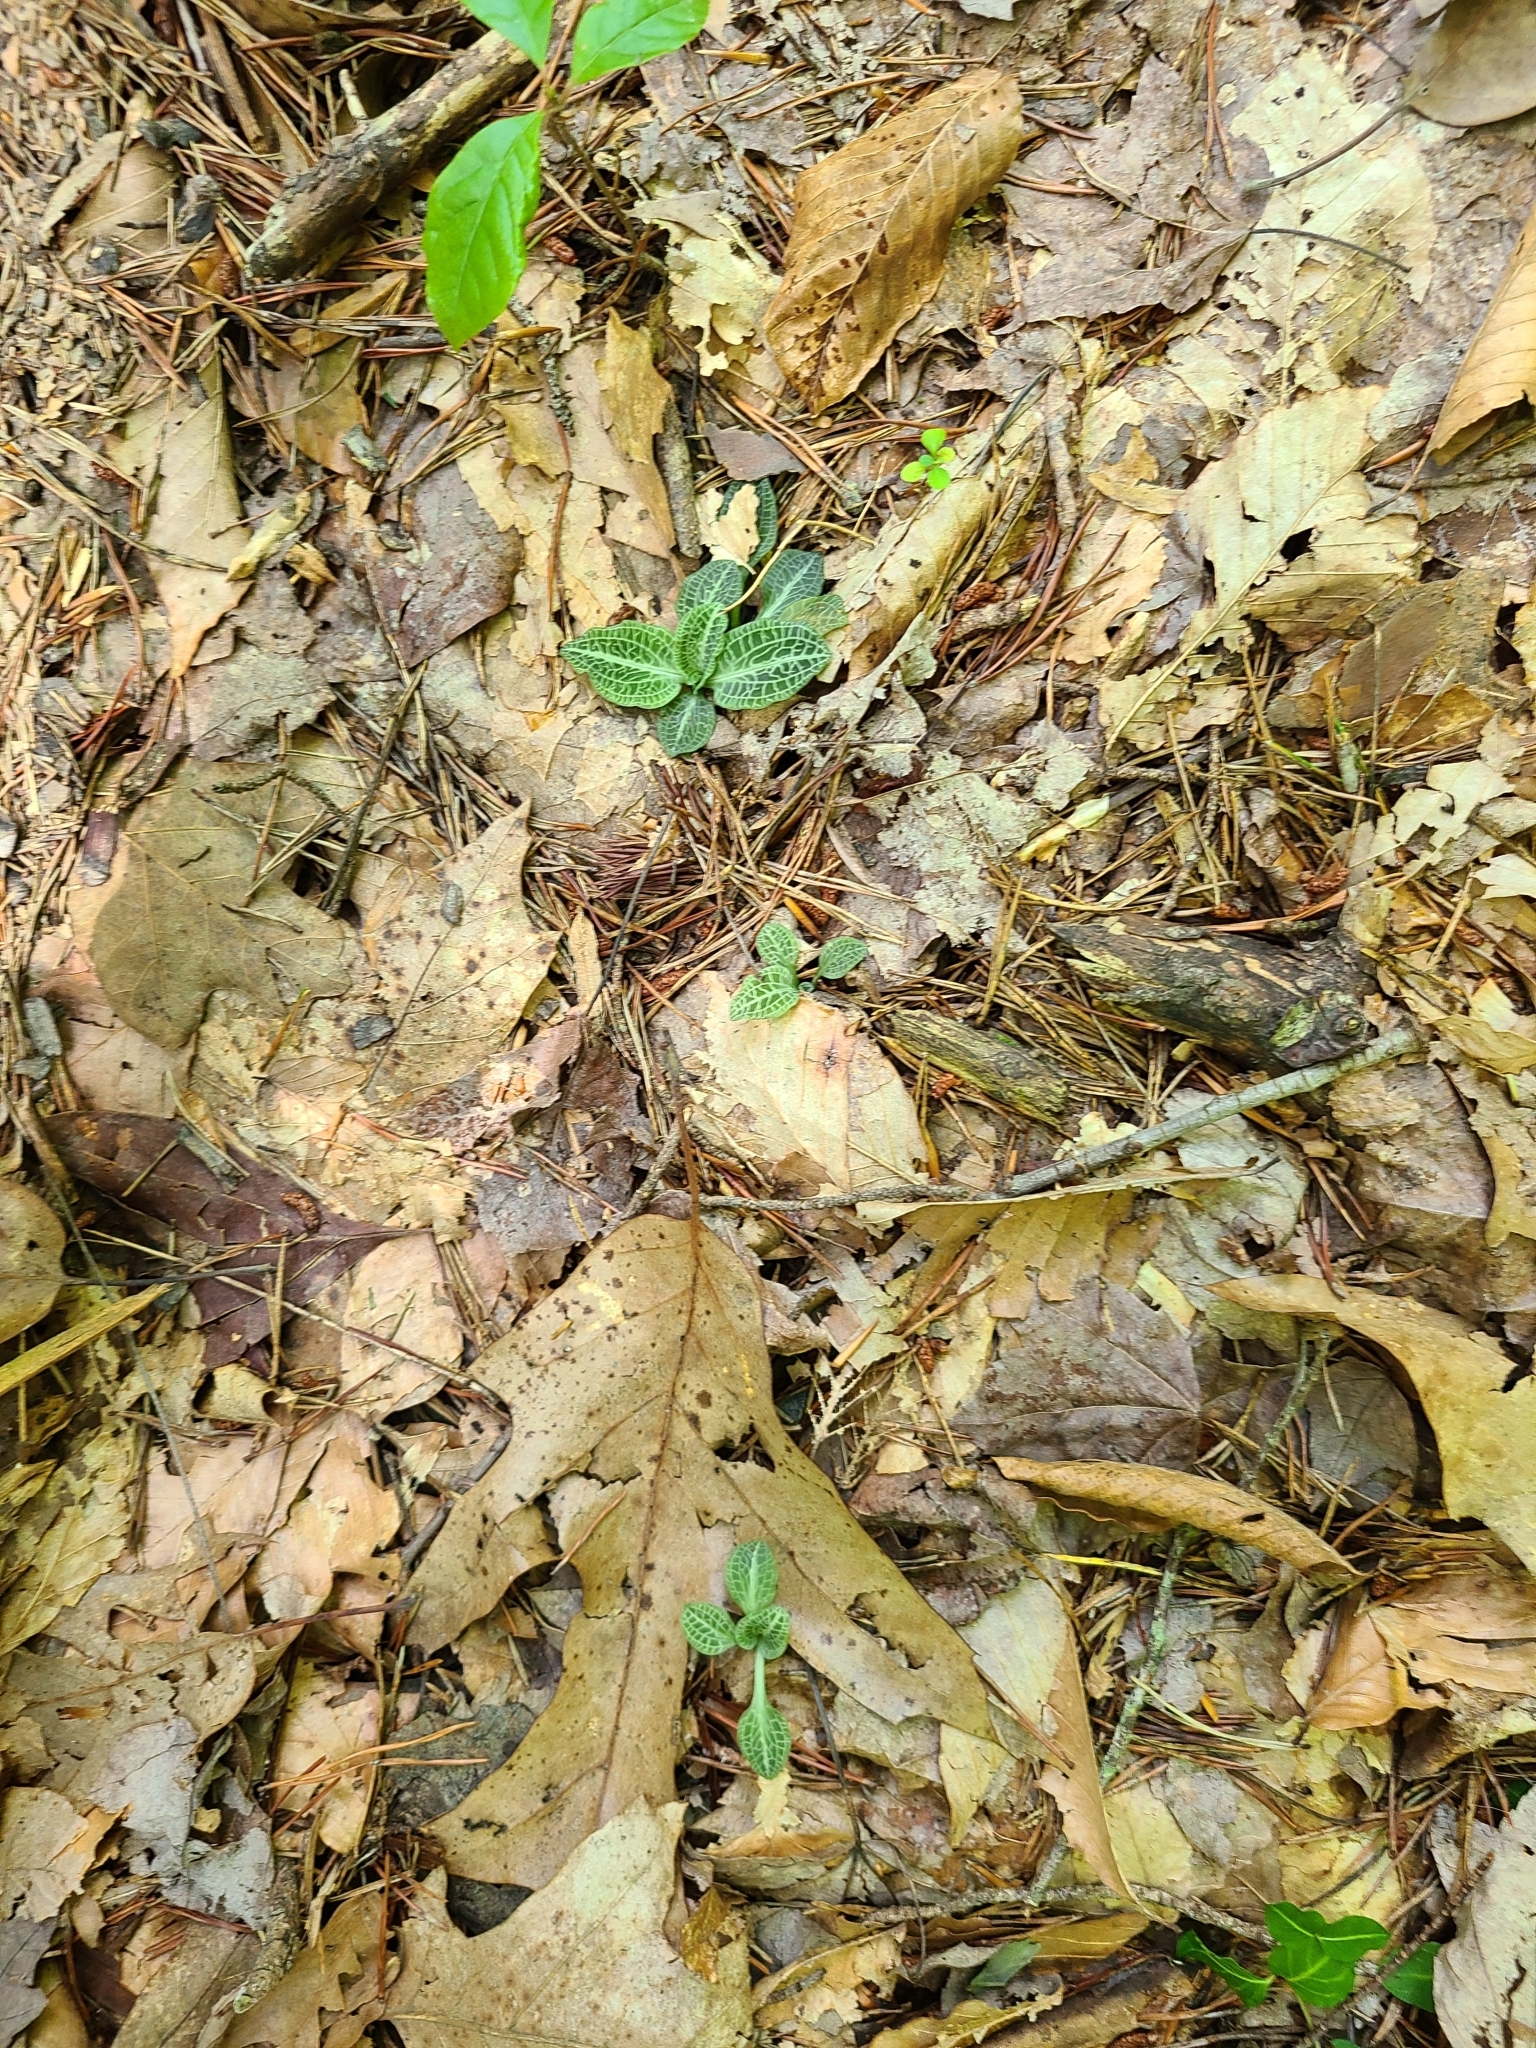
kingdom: Plantae
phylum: Tracheophyta
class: Liliopsida
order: Asparagales
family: Orchidaceae
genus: Goodyera
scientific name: Goodyera pubescens
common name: Downy rattlesnake-plantain
